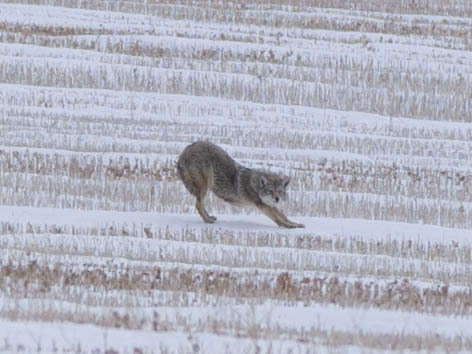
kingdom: Animalia
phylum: Chordata
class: Mammalia
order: Carnivora
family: Canidae
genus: Canis
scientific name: Canis latrans
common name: Coyote
